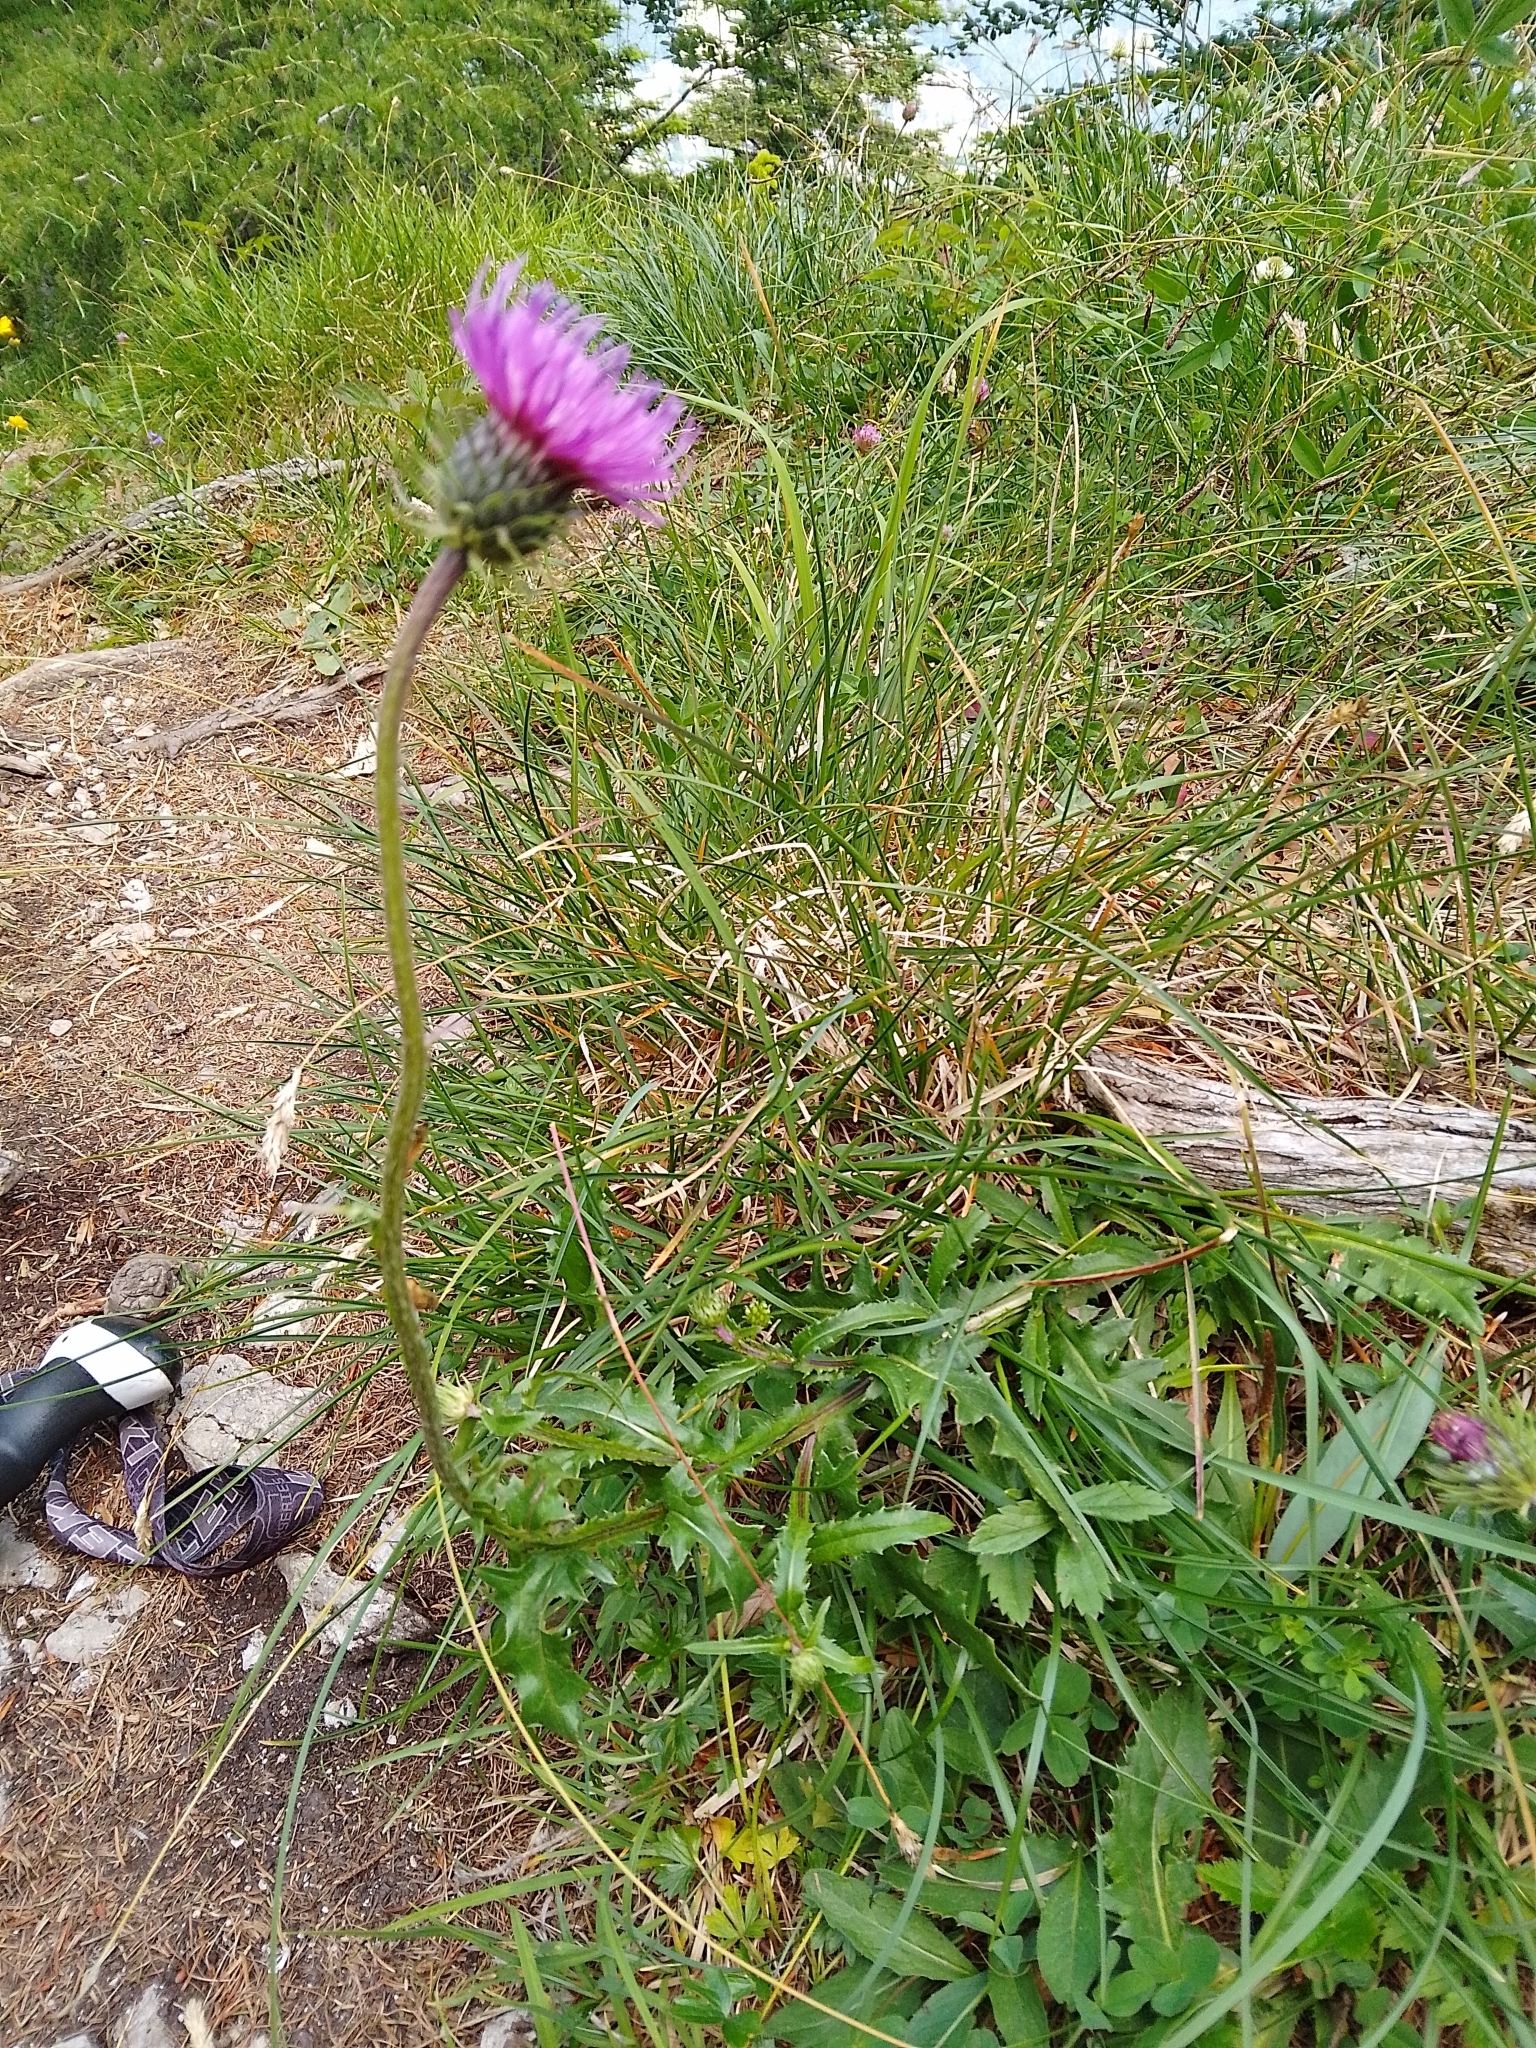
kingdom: Plantae
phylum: Tracheophyta
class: Magnoliopsida
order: Asterales
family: Asteraceae
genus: Carduus
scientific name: Carduus defloratus
